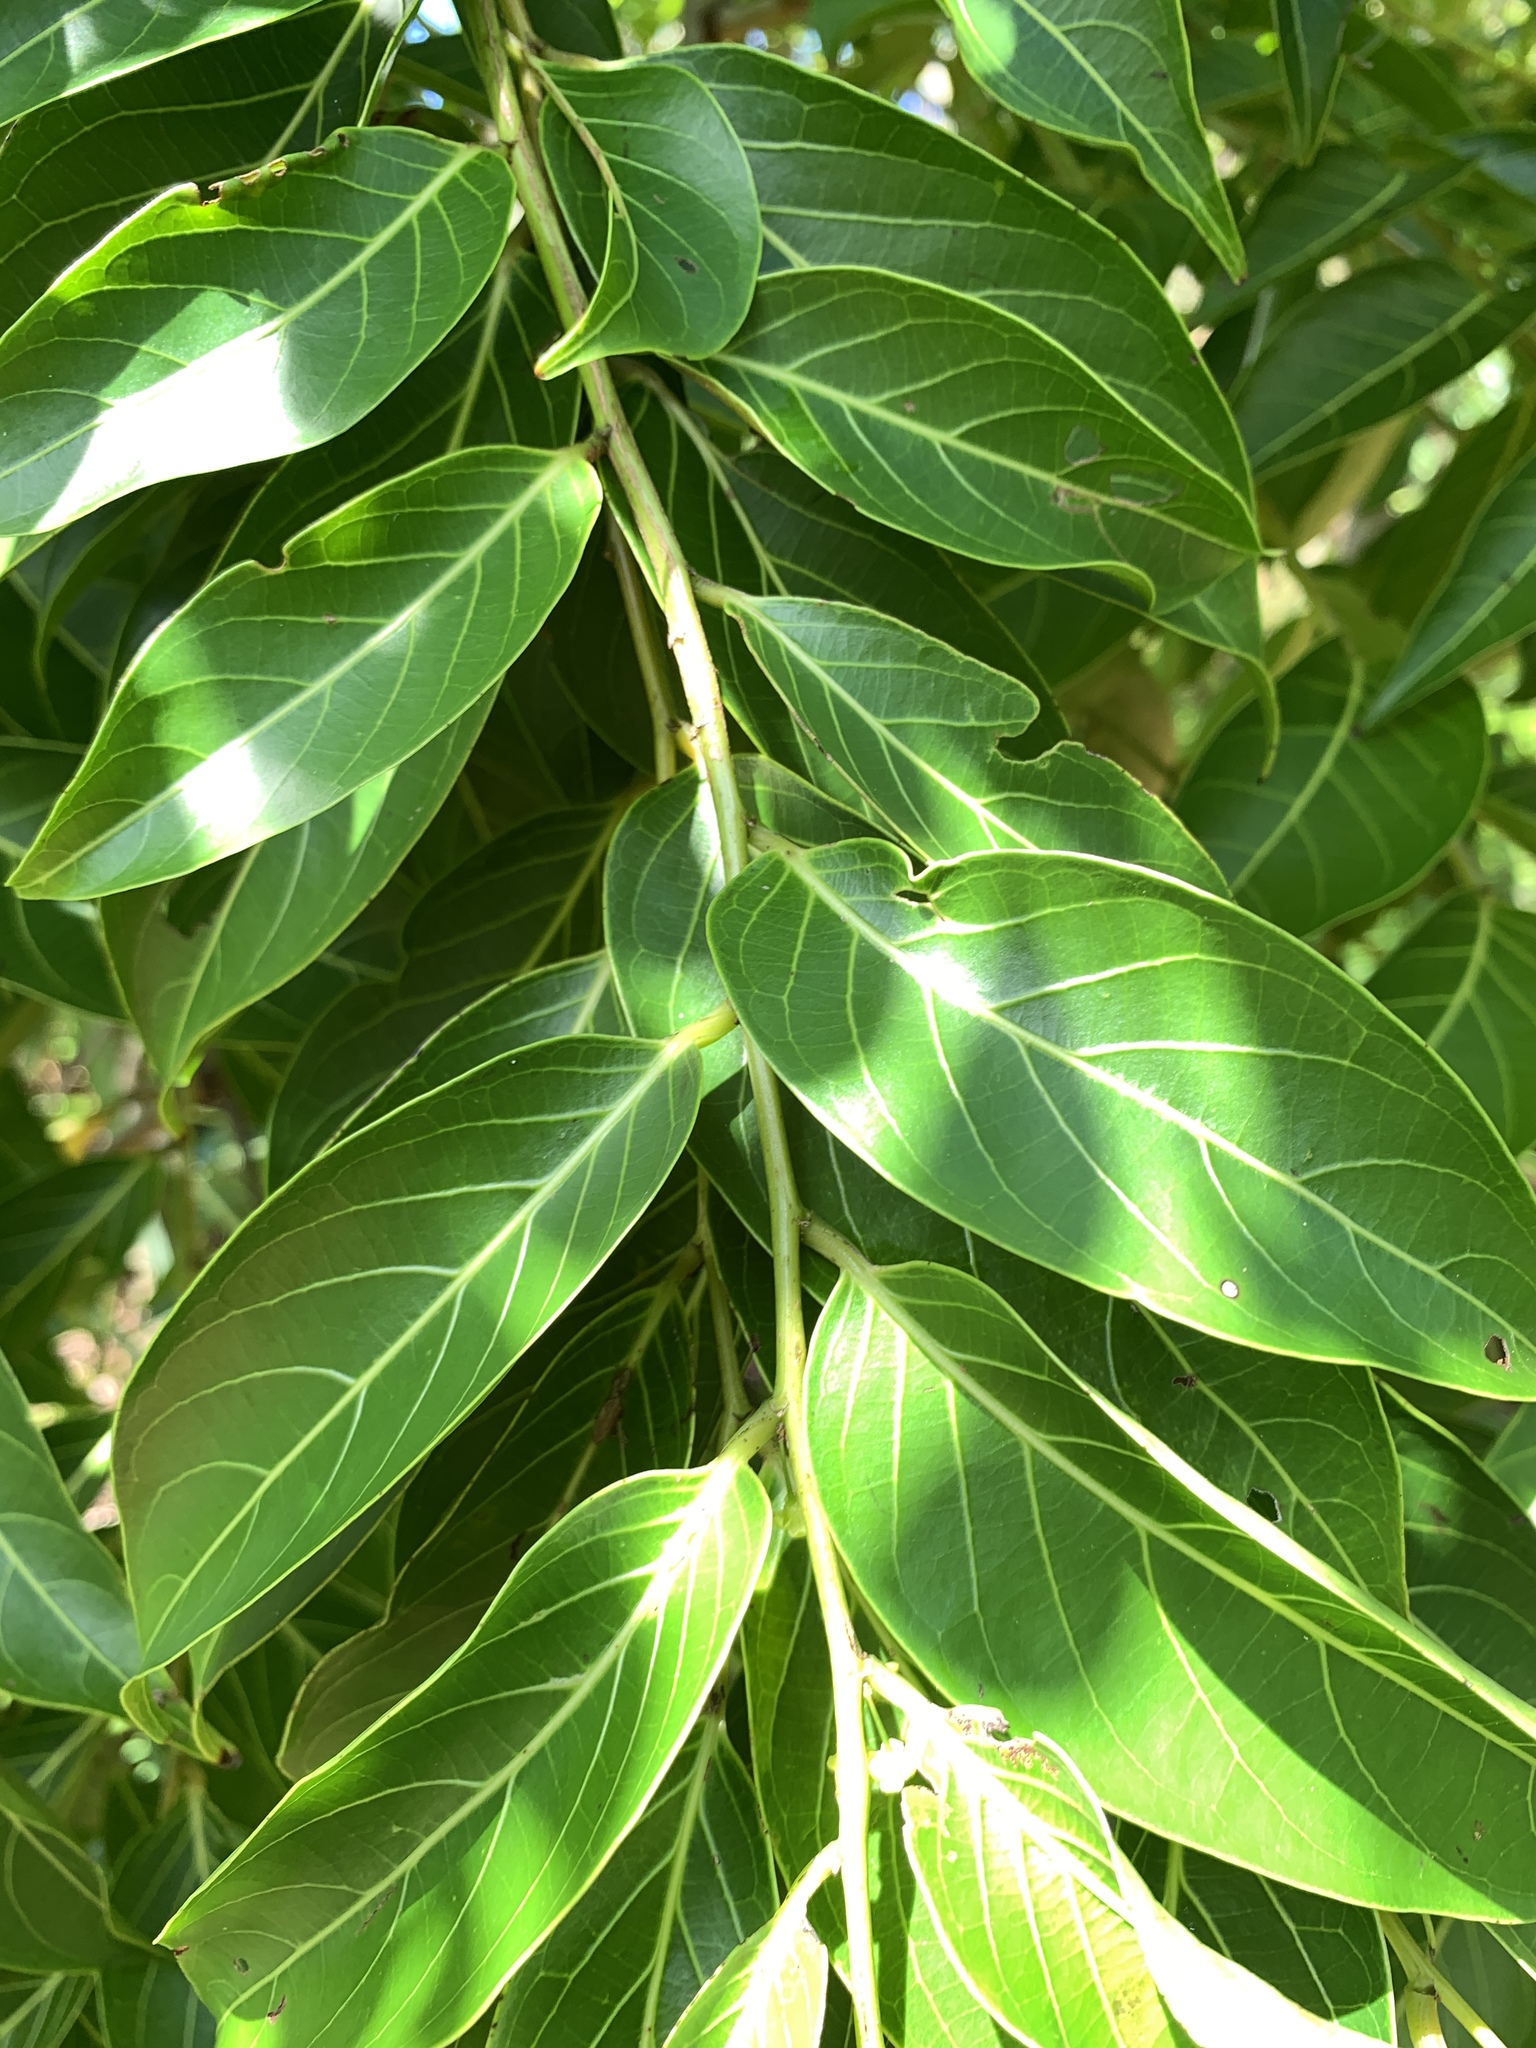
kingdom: Plantae
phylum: Tracheophyta
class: Magnoliopsida
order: Malpighiales
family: Phyllanthaceae
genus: Glochidion
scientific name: Glochidion lanceolatum
